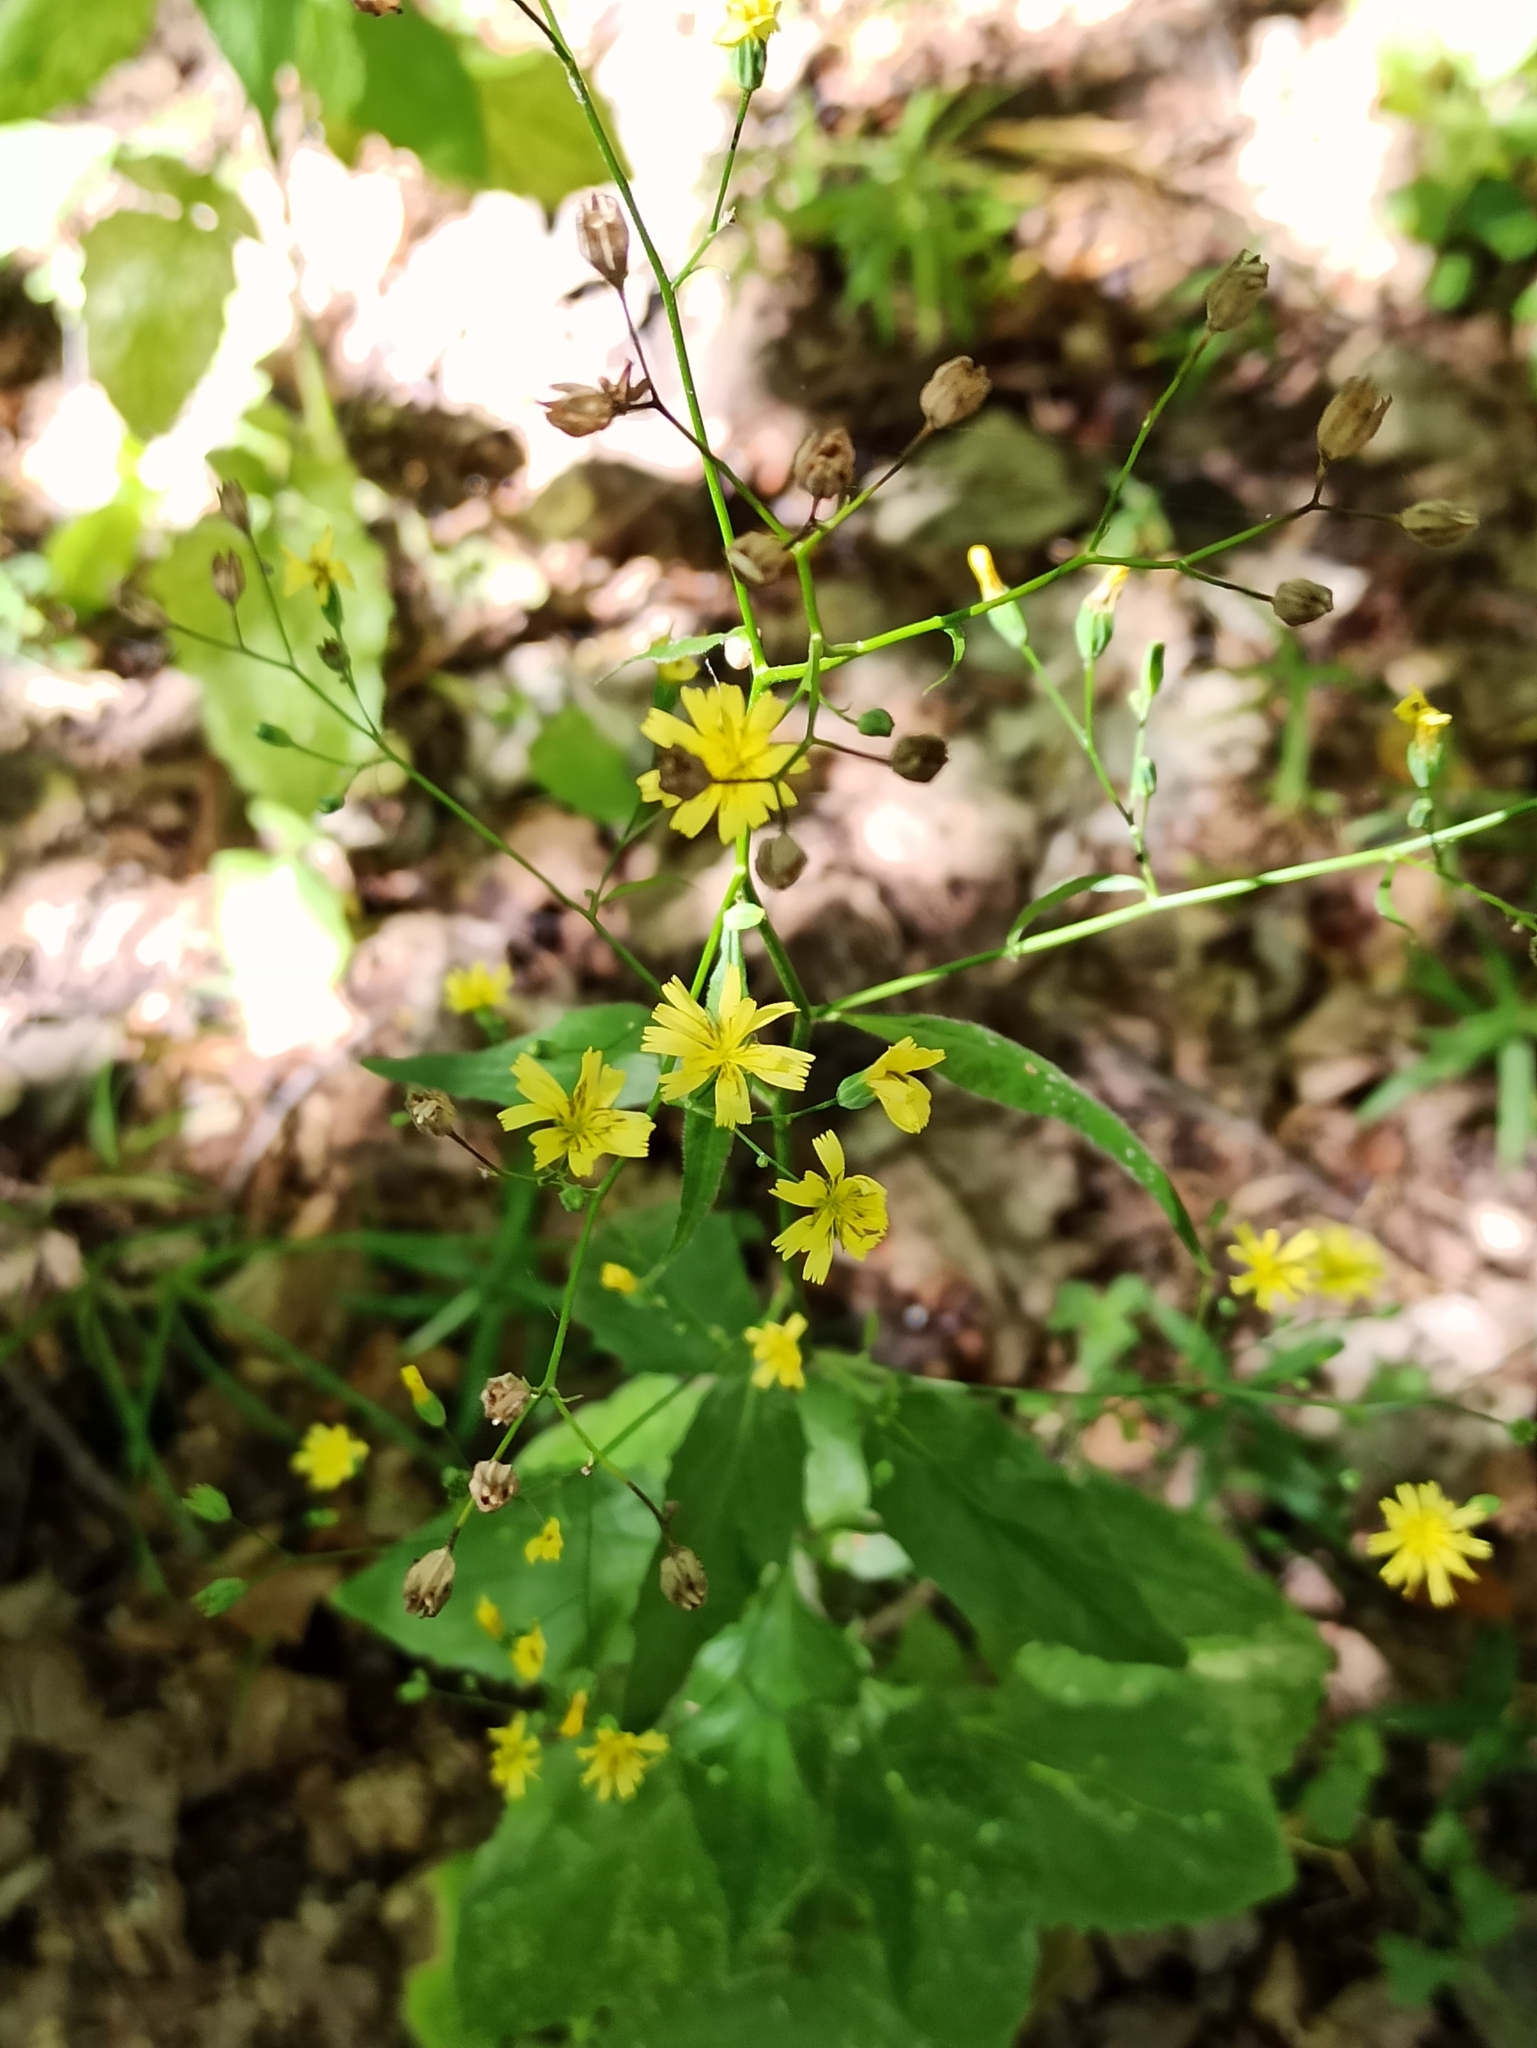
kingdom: Plantae
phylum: Tracheophyta
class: Magnoliopsida
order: Asterales
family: Asteraceae
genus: Lapsana
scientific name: Lapsana communis
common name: Nipplewort
